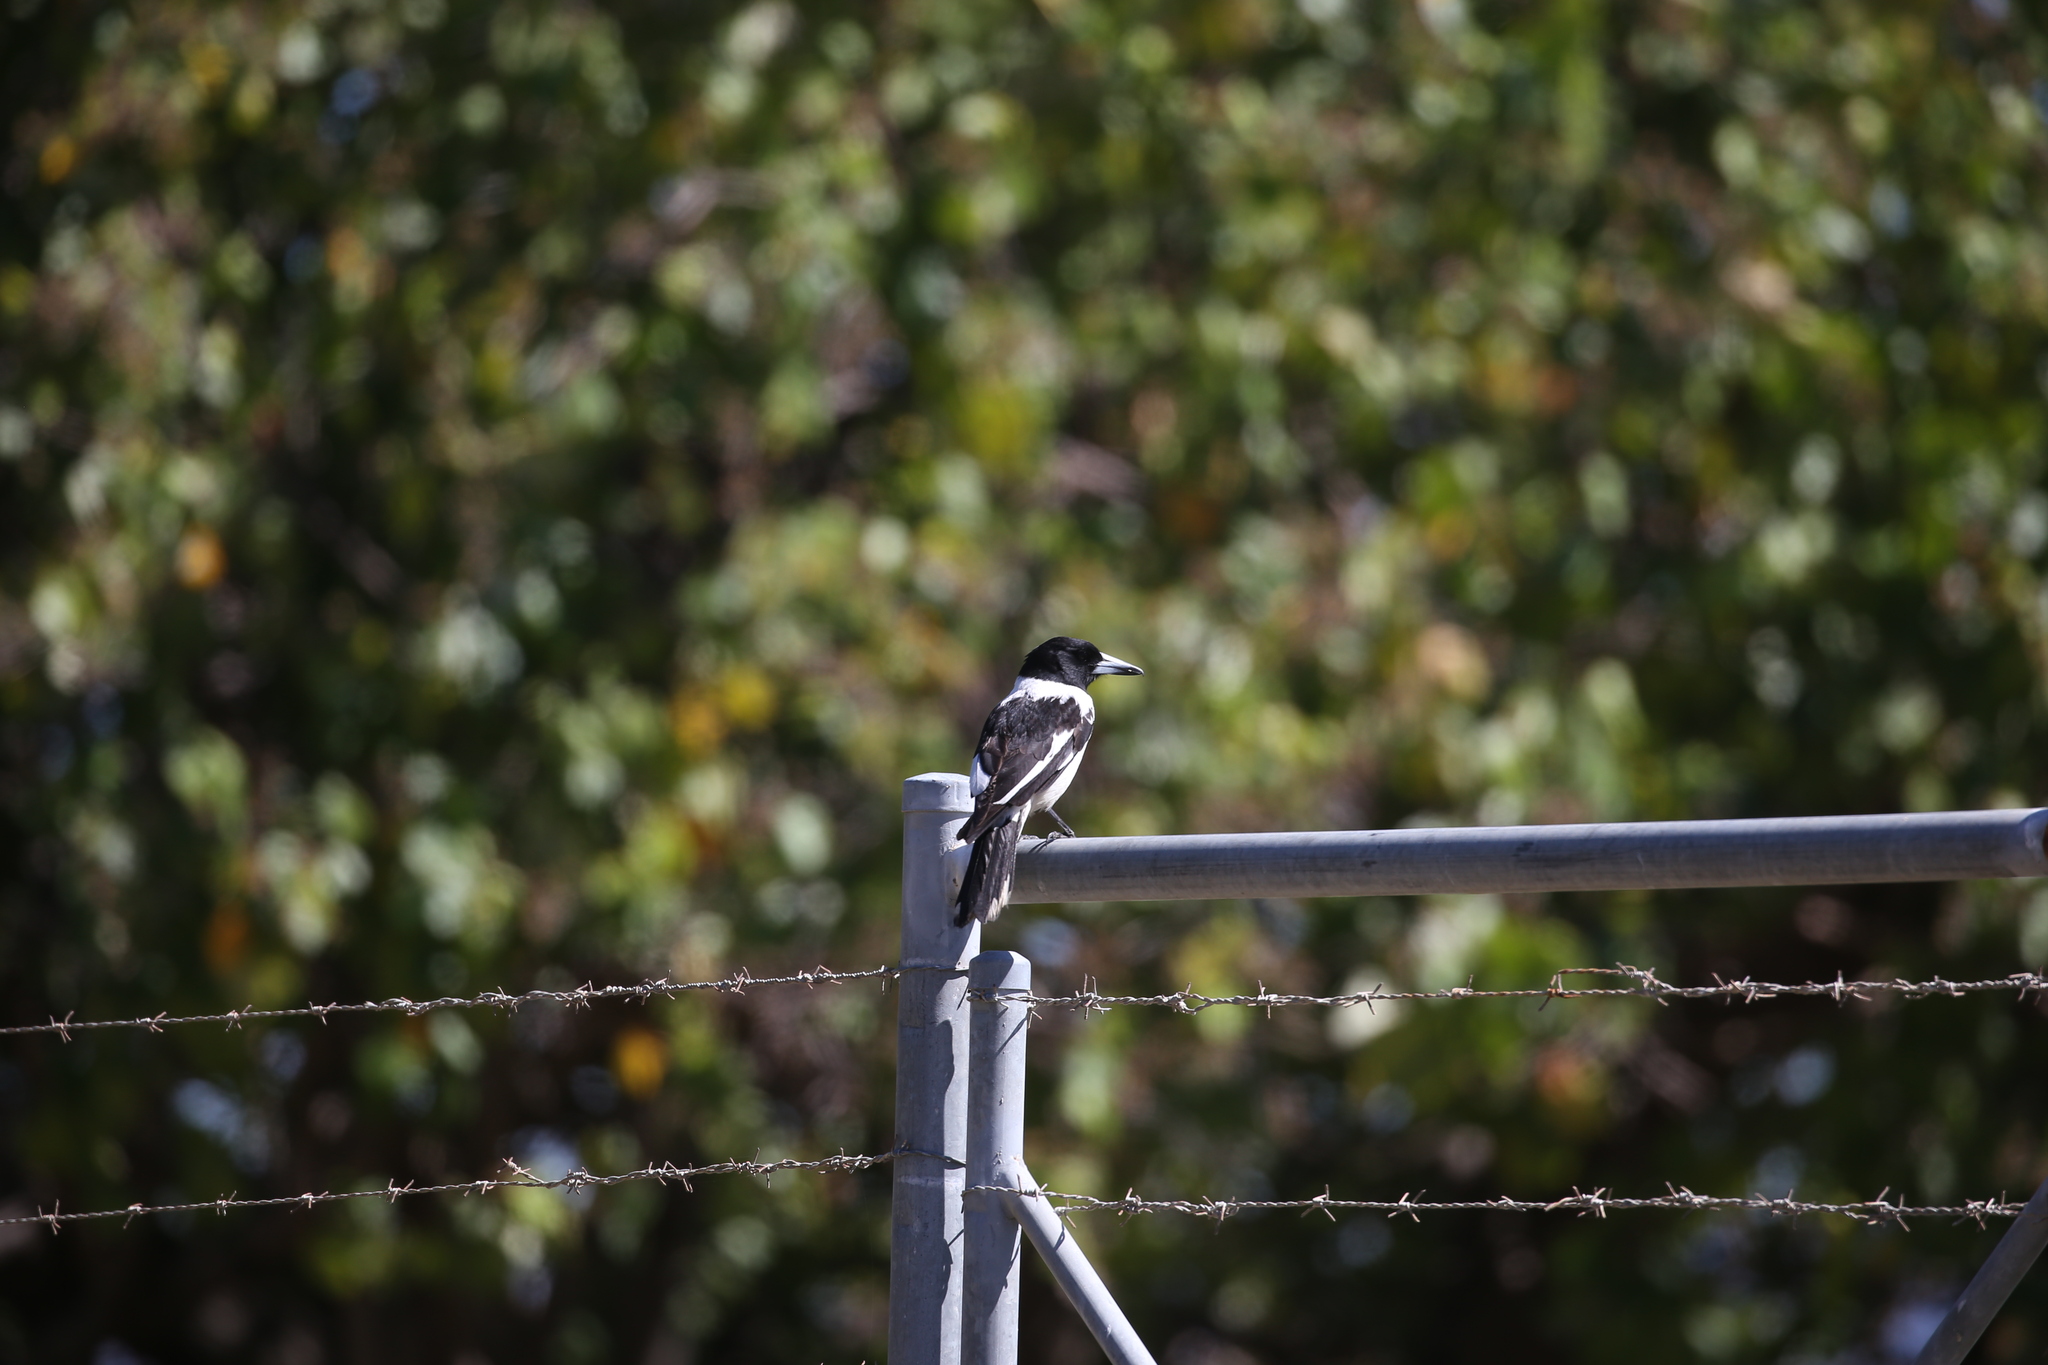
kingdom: Animalia
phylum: Chordata
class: Aves
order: Passeriformes
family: Cracticidae
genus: Cracticus
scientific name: Cracticus nigrogularis
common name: Pied butcherbird
